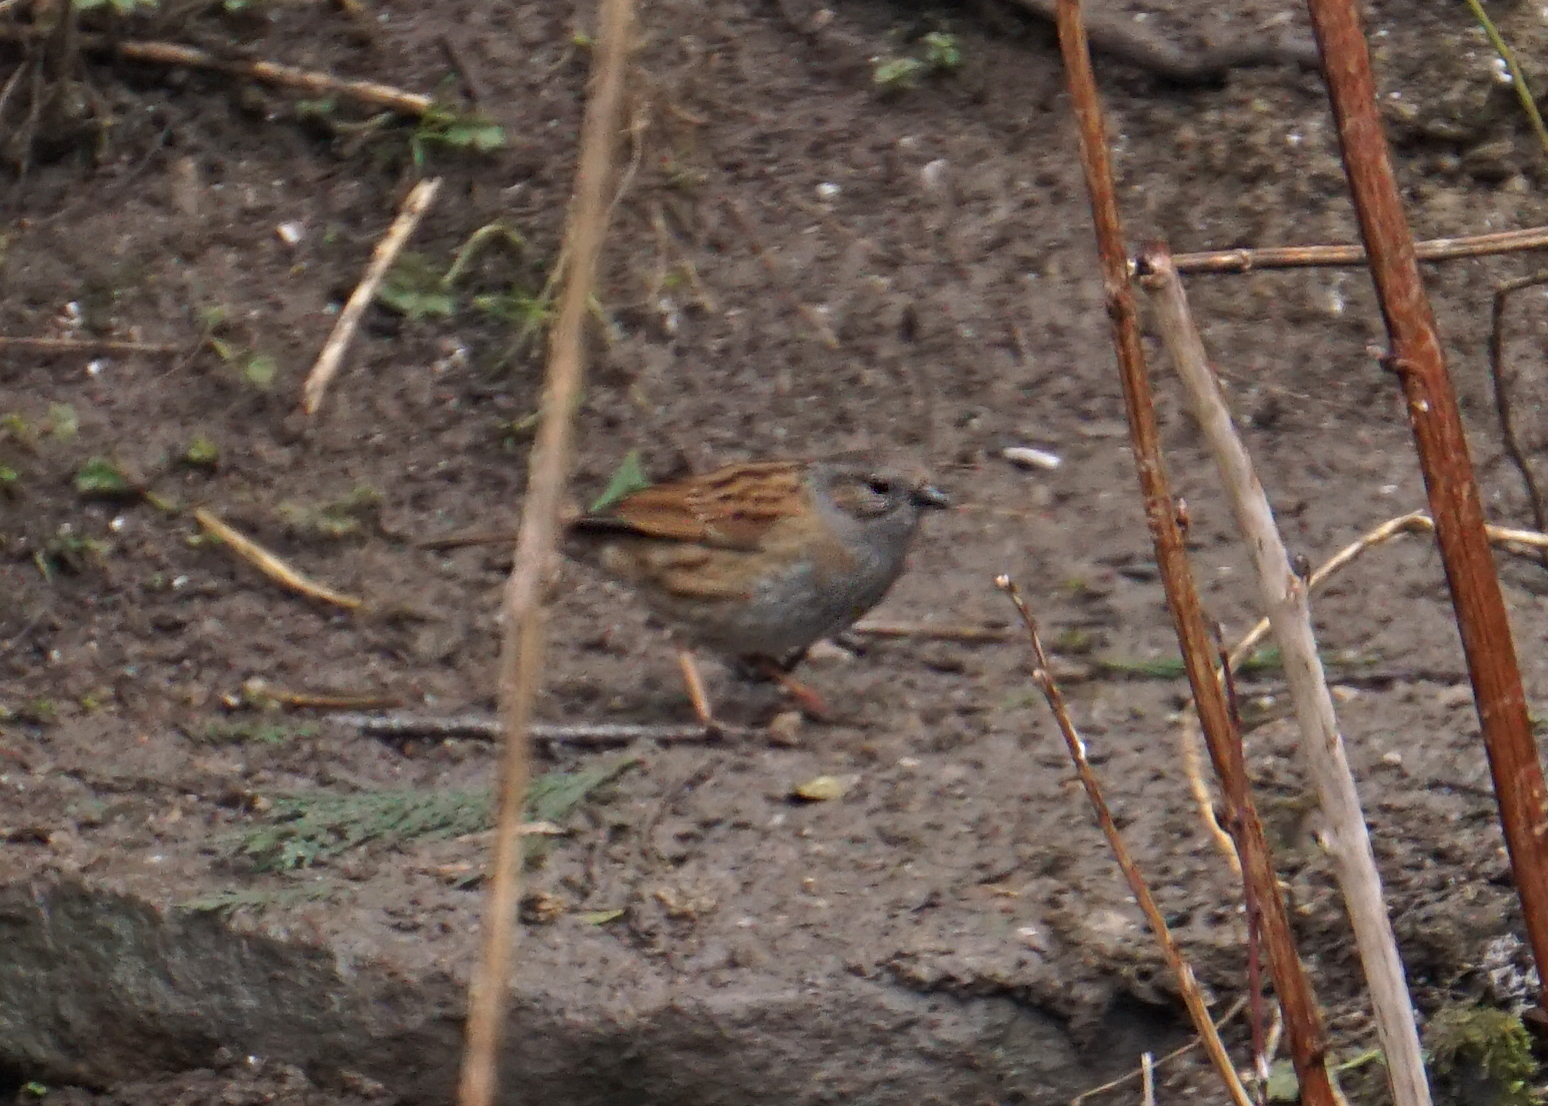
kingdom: Animalia
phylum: Chordata
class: Aves
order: Passeriformes
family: Prunellidae
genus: Prunella
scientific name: Prunella modularis
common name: Dunnock
